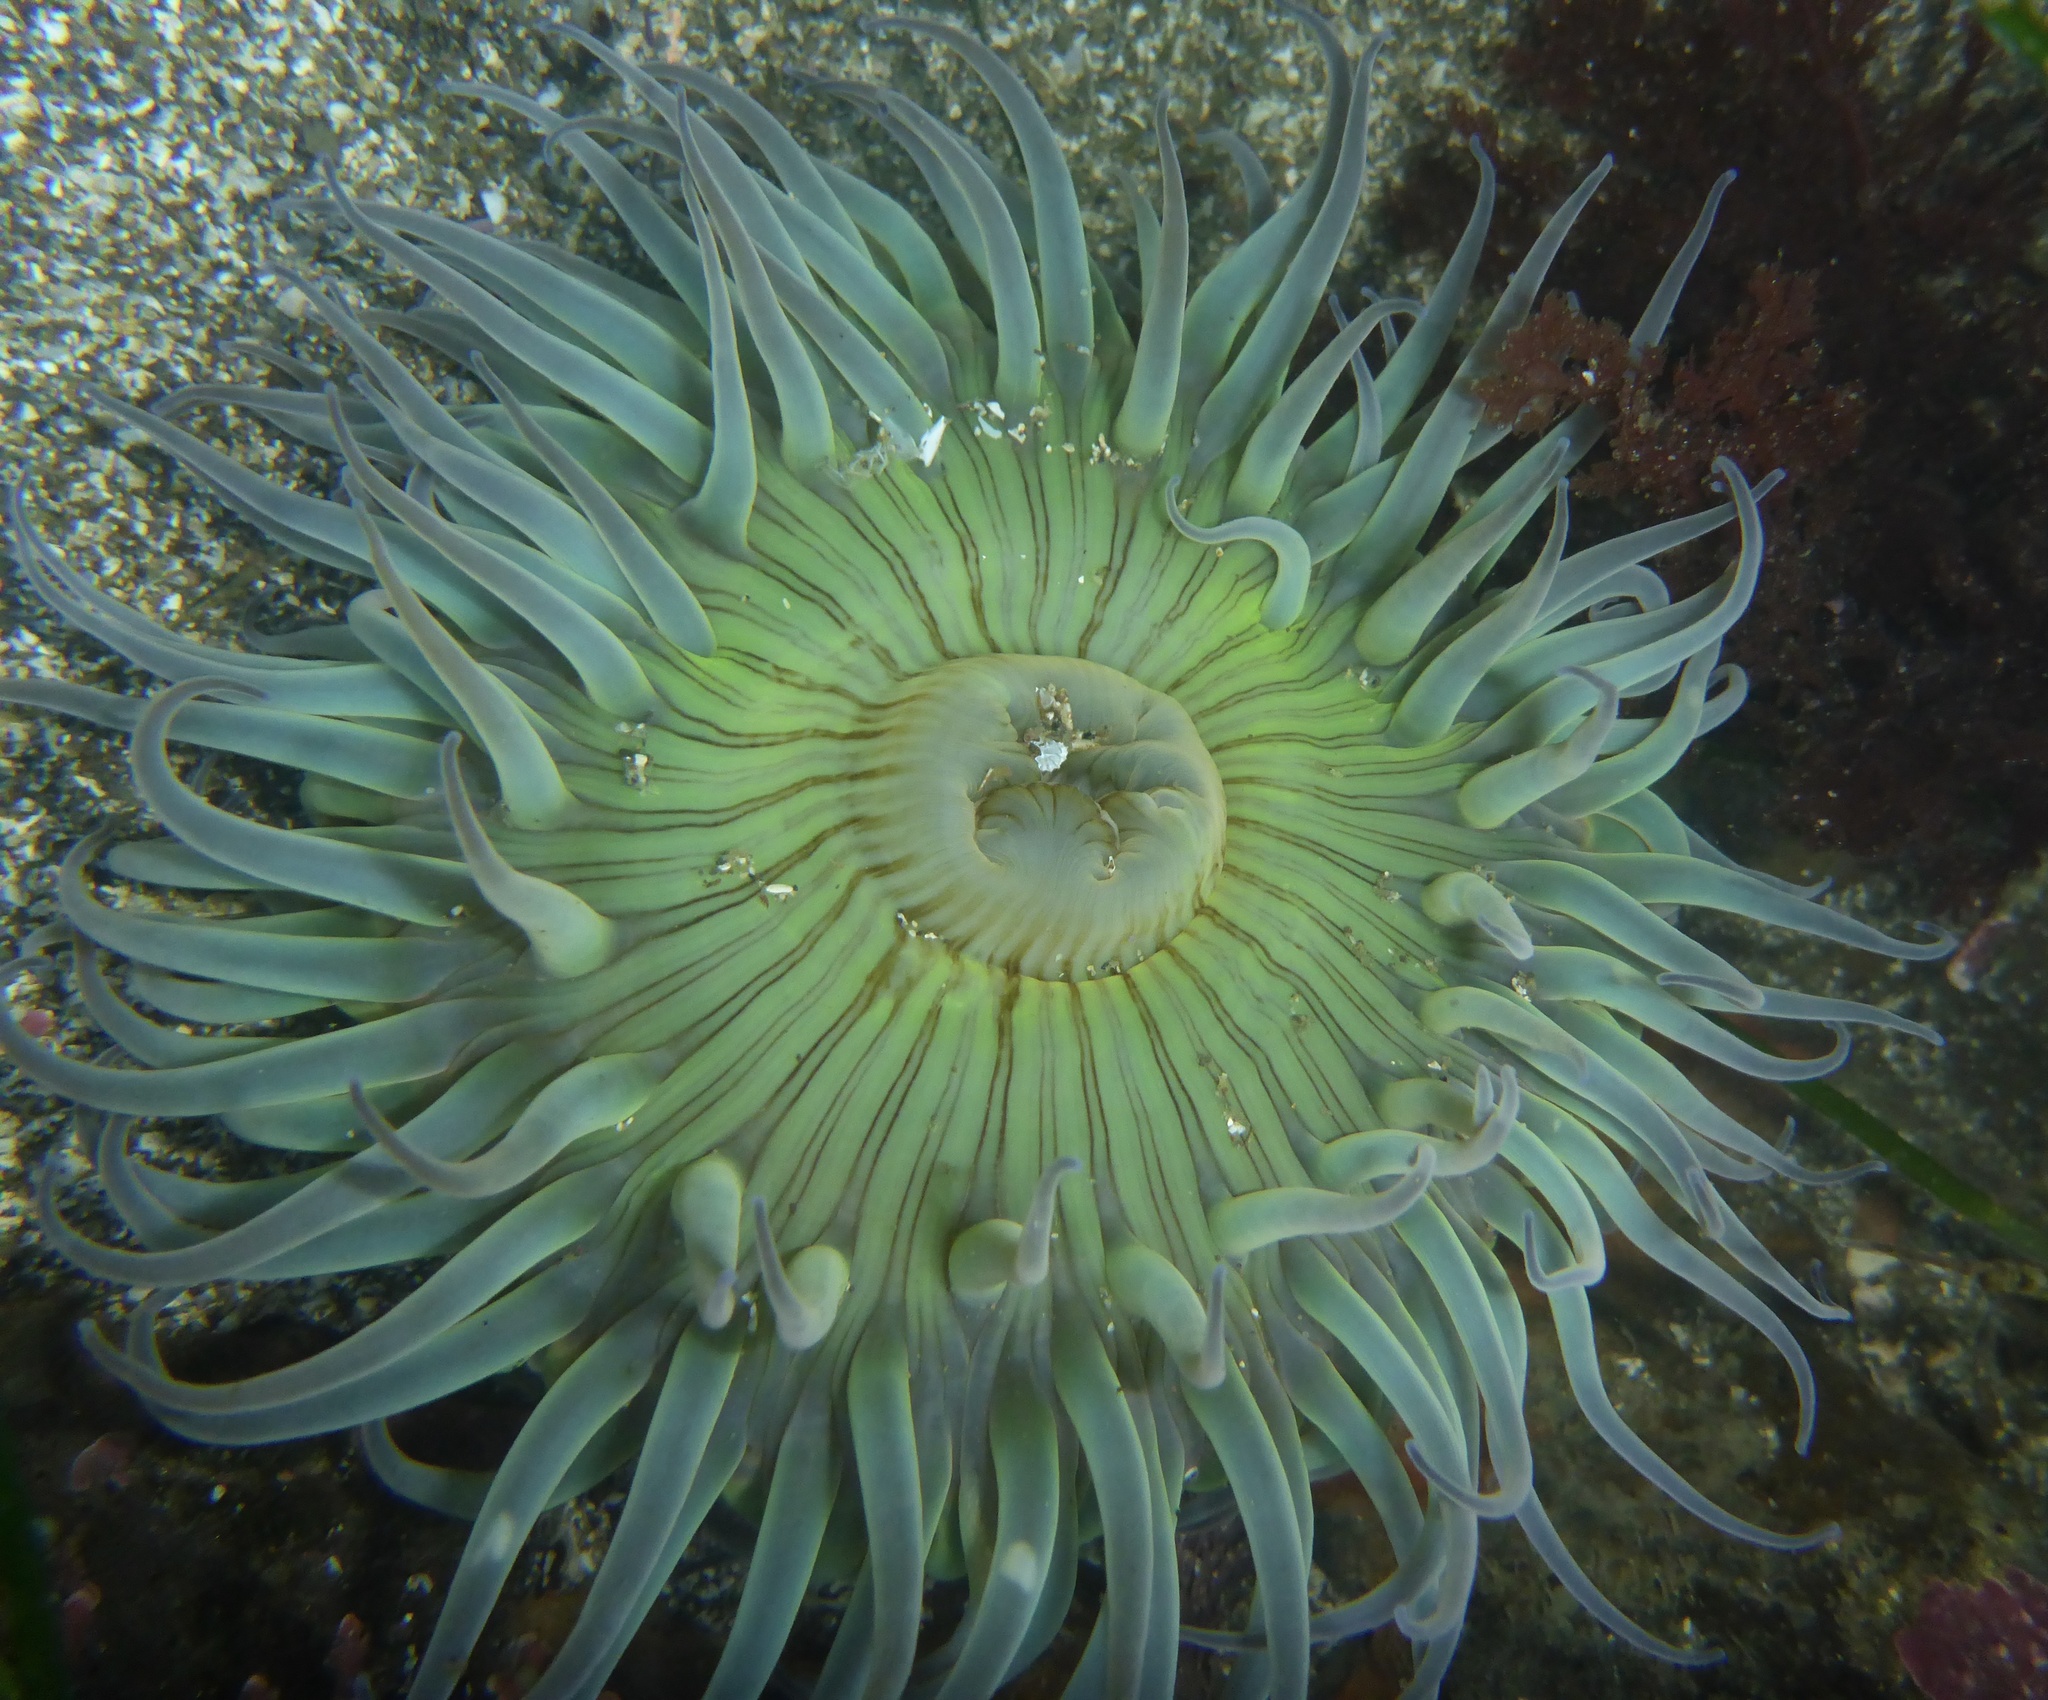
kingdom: Animalia
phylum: Cnidaria
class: Anthozoa
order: Actiniaria
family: Actiniidae
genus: Anthopleura
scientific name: Anthopleura sola
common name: Sun anemone
